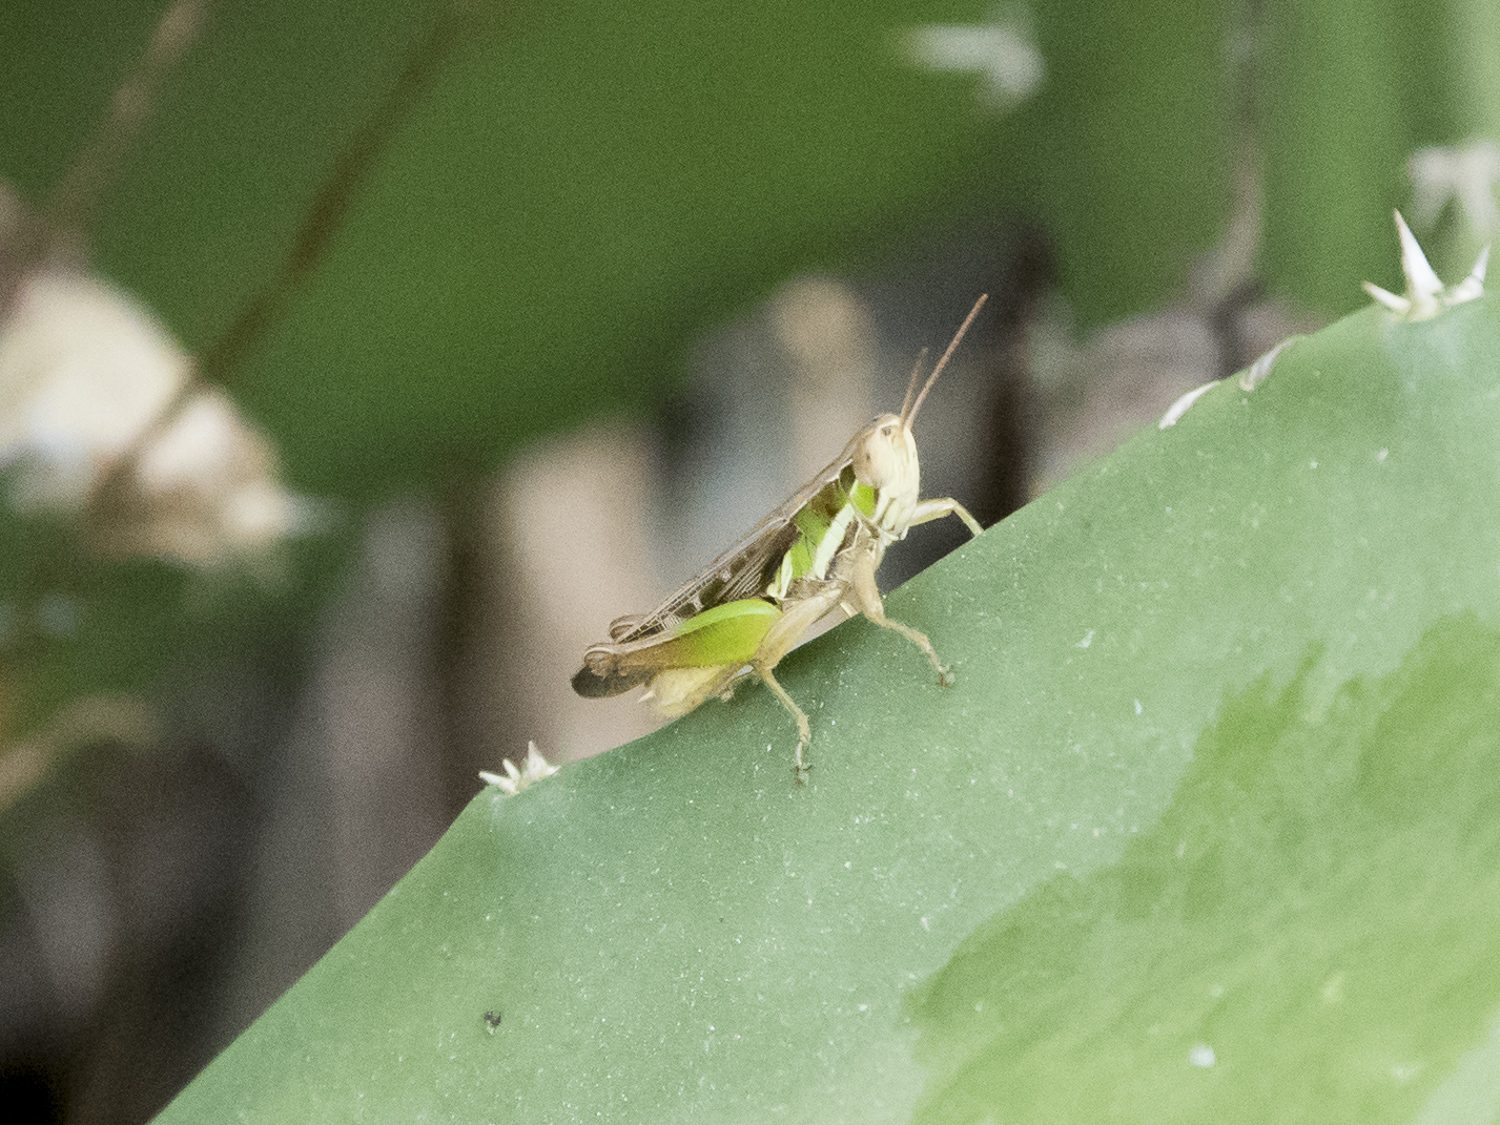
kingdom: Animalia
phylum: Arthropoda
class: Insecta
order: Orthoptera
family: Acrididae
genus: Spathosternum
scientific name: Spathosternum prasiniferum
